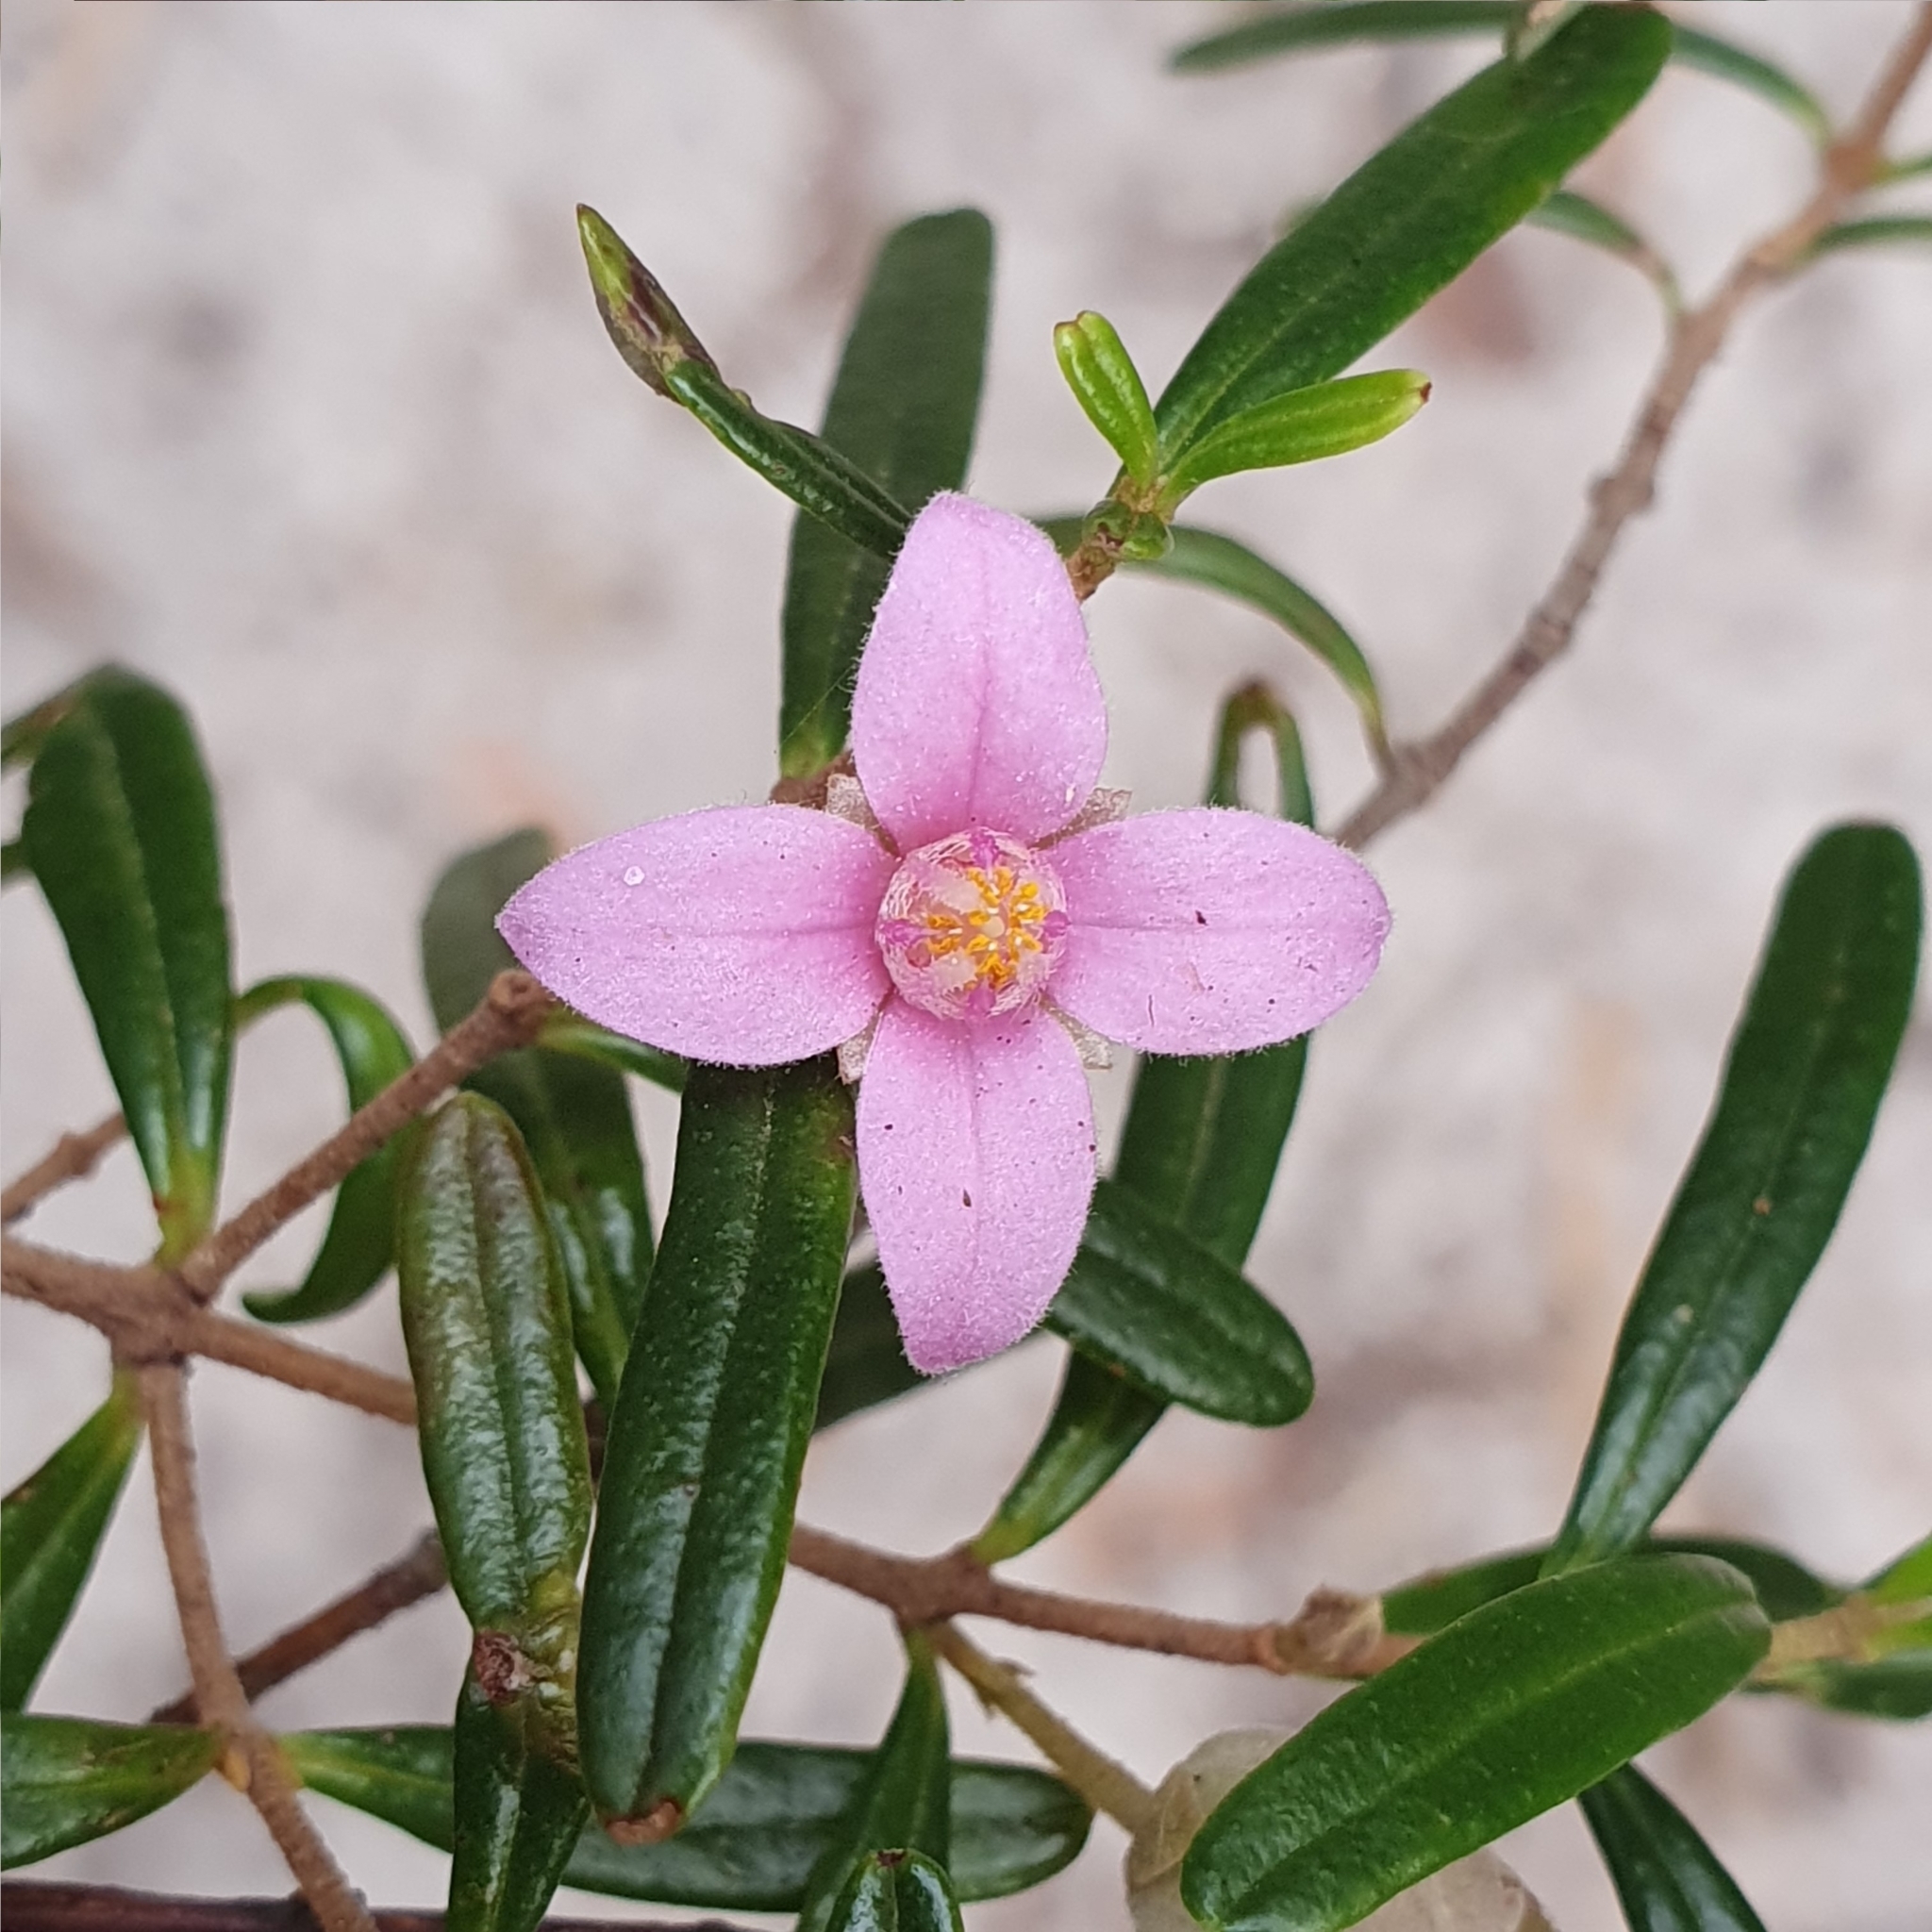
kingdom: Plantae
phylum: Tracheophyta
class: Magnoliopsida
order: Sapindales
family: Rutaceae
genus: Boronia
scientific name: Boronia rosmarinifolia
